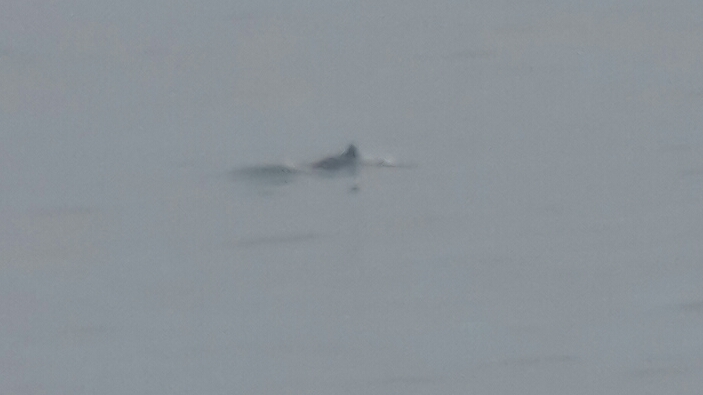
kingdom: Animalia
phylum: Chordata
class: Mammalia
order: Cetacea
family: Phocoenidae
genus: Phocoena
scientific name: Phocoena phocoena
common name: Harbor porpoise
